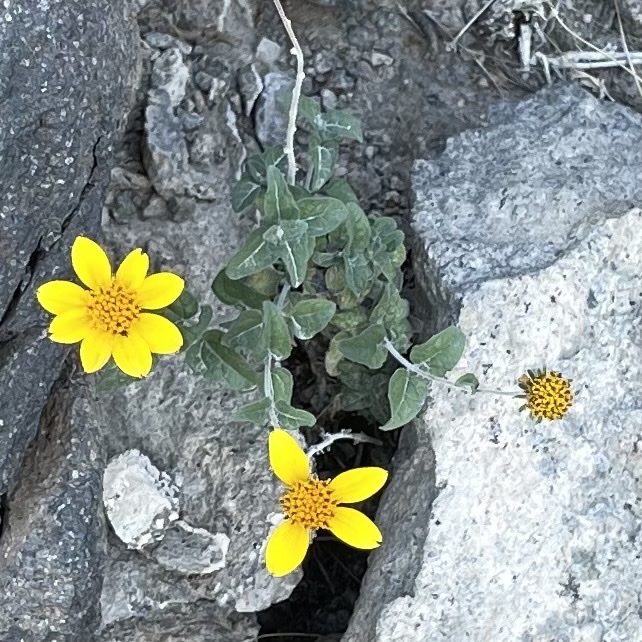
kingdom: Plantae
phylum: Tracheophyta
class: Magnoliopsida
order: Asterales
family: Asteraceae
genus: Bahiopsis
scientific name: Bahiopsis parishii
